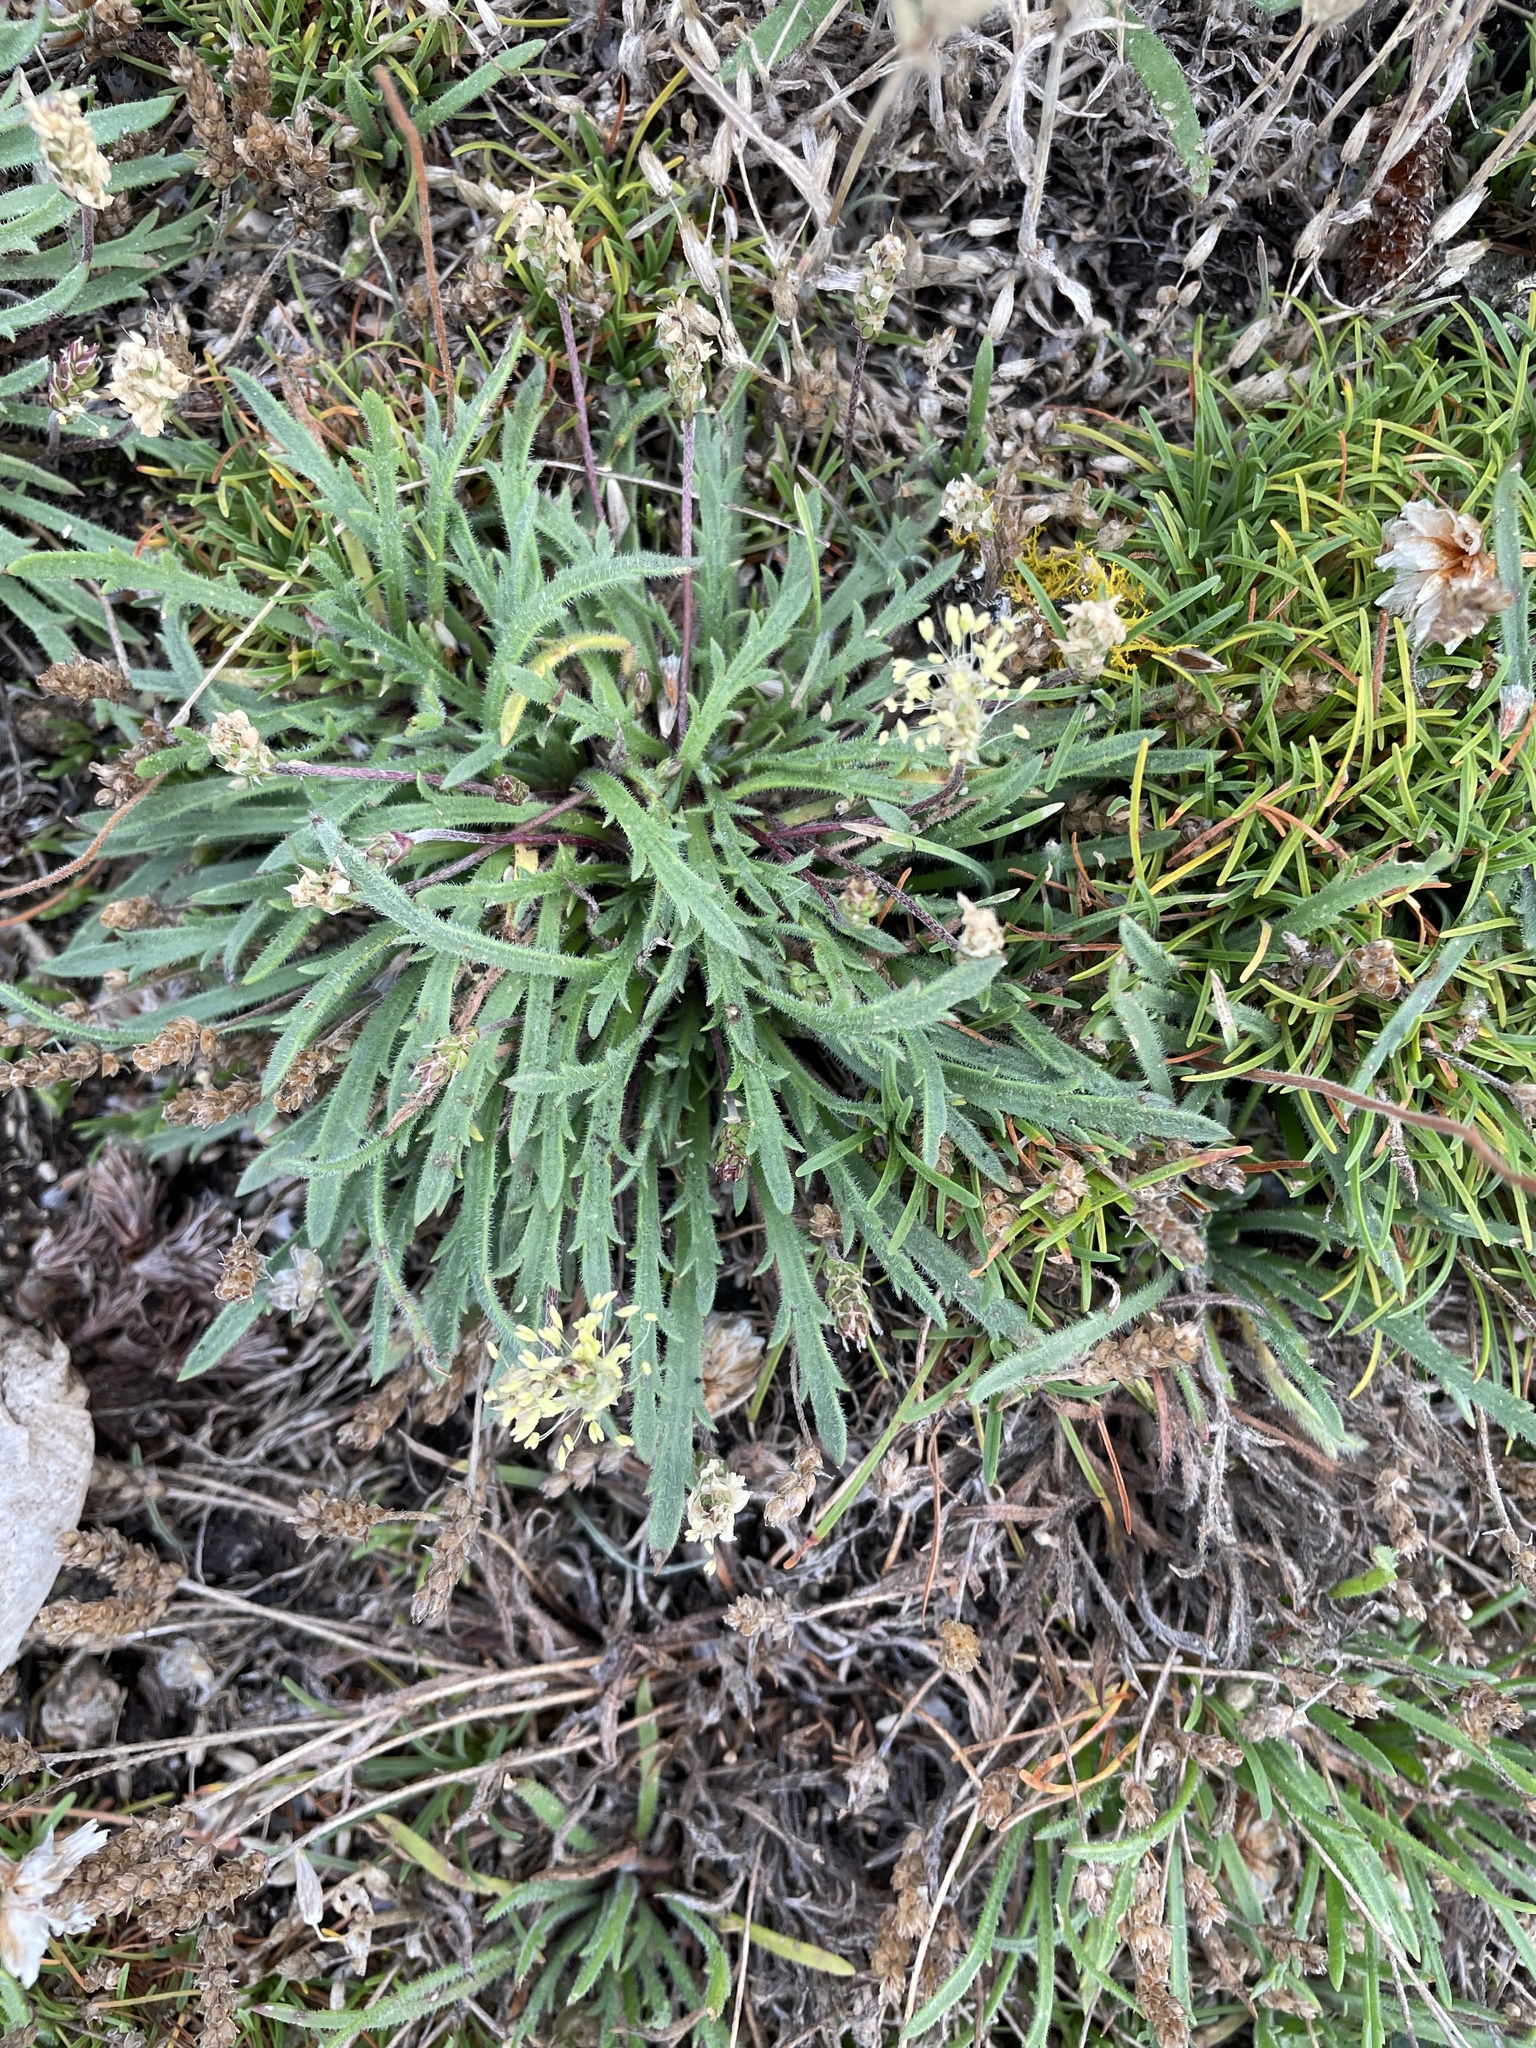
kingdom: Plantae
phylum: Tracheophyta
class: Magnoliopsida
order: Lamiales
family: Plantaginaceae
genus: Plantago
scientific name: Plantago coronopus
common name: Buck's-horn plantain
